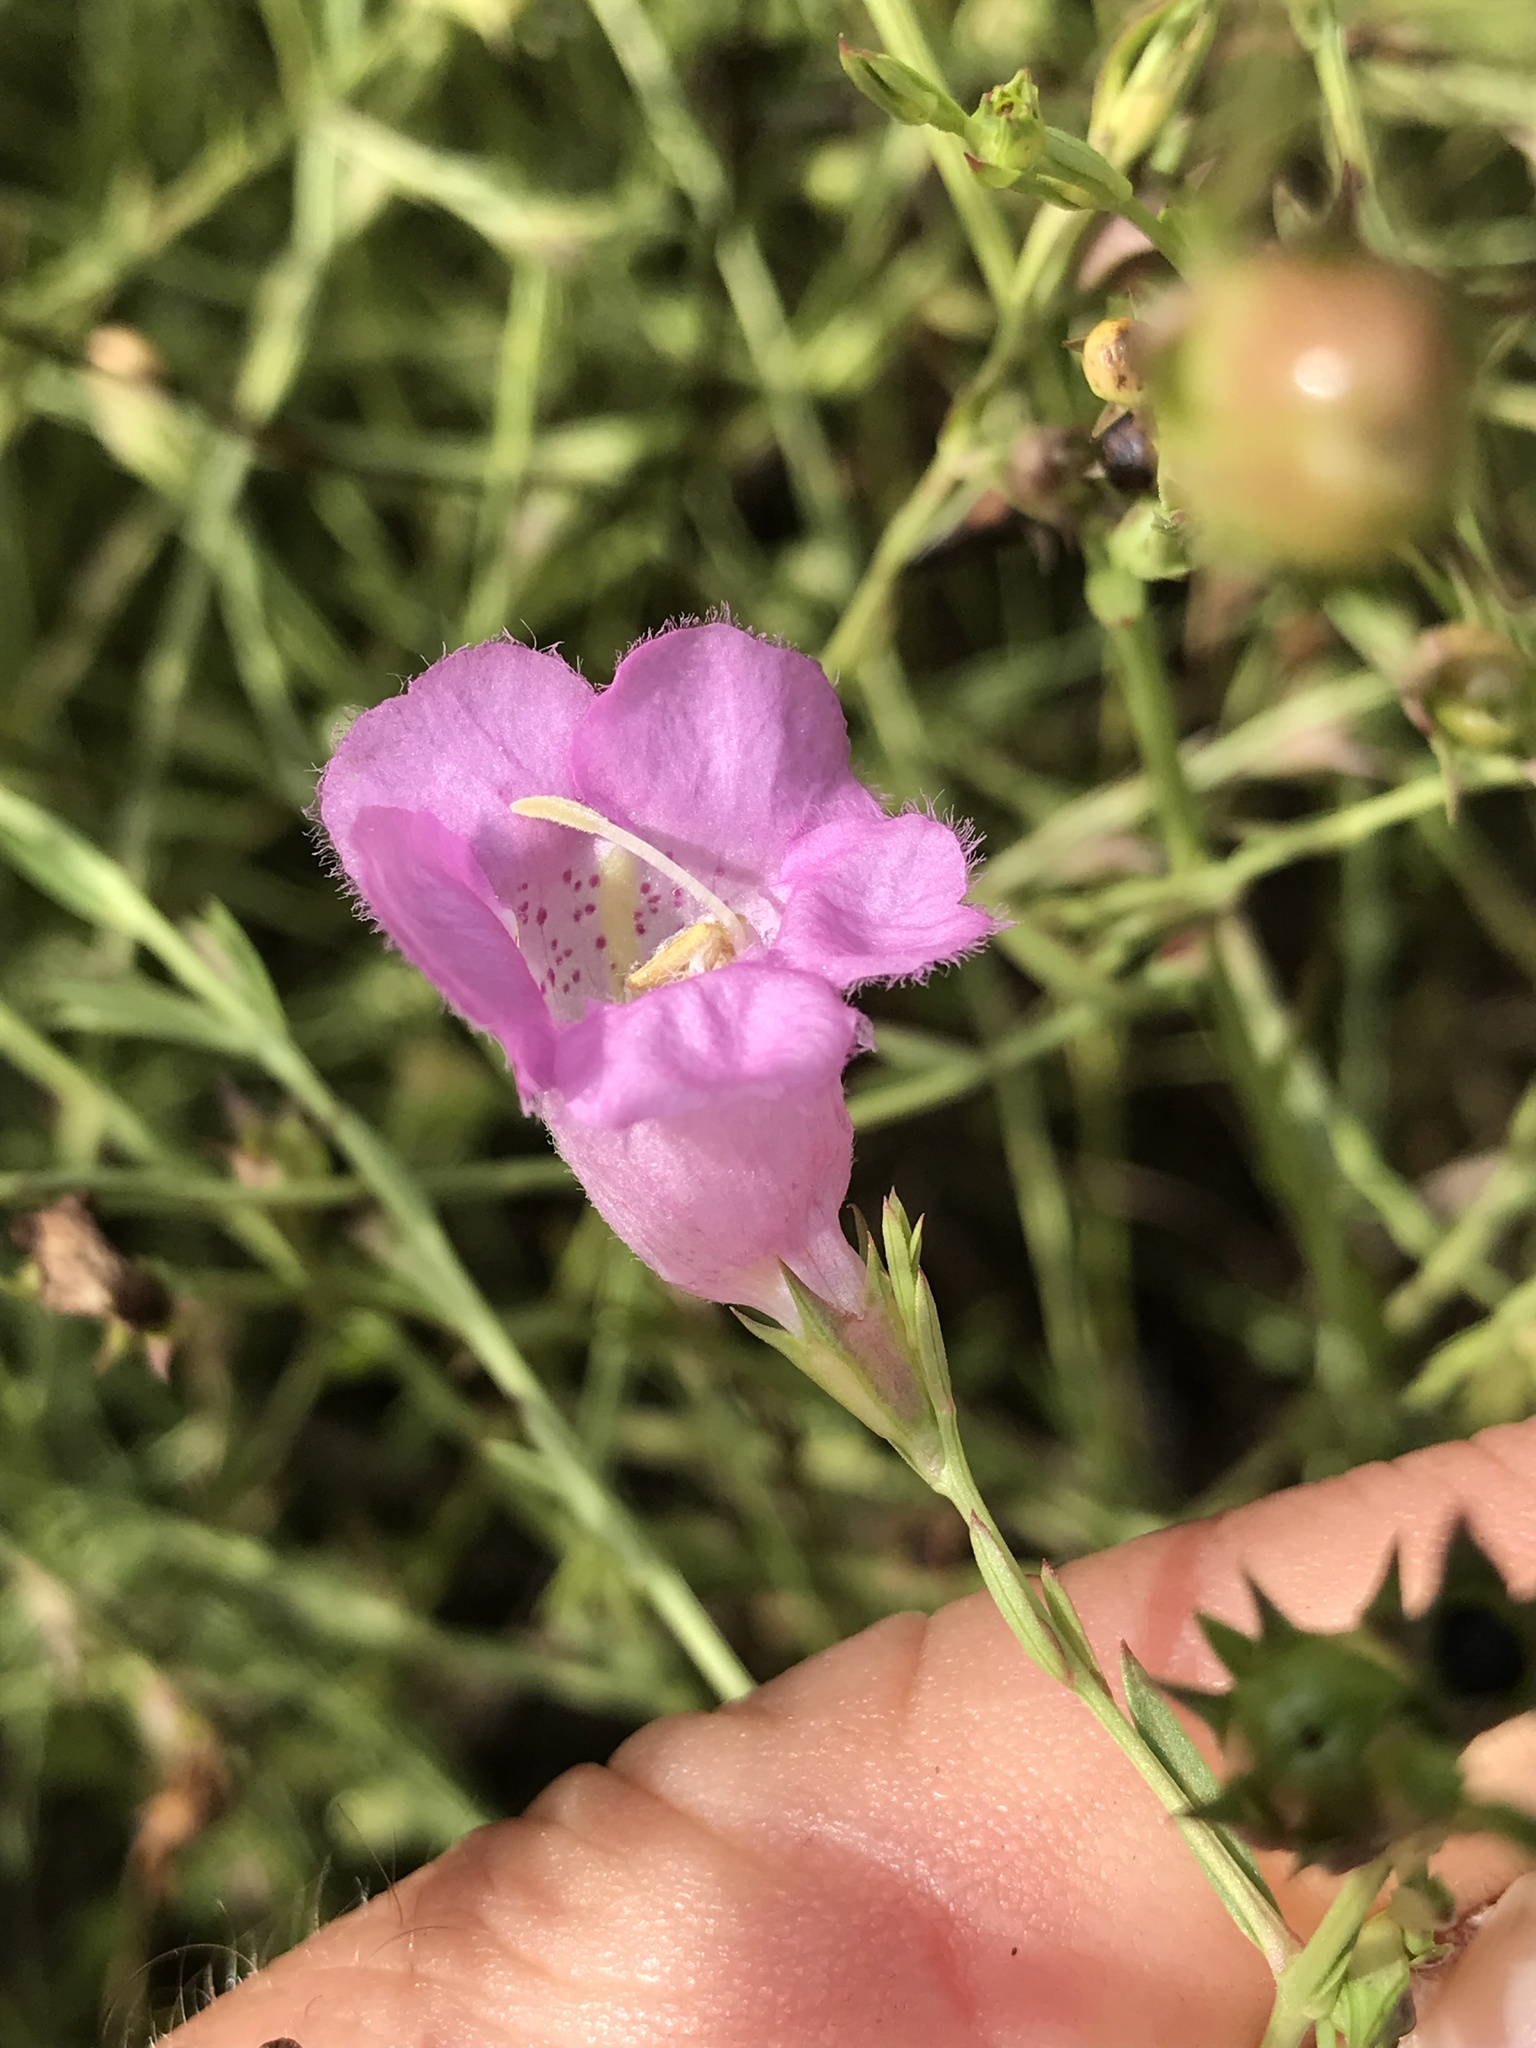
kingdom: Plantae
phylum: Tracheophyta
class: Magnoliopsida
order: Lamiales
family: Orobanchaceae
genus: Agalinis
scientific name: Agalinis heterophylla
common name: Prairie agalinis
